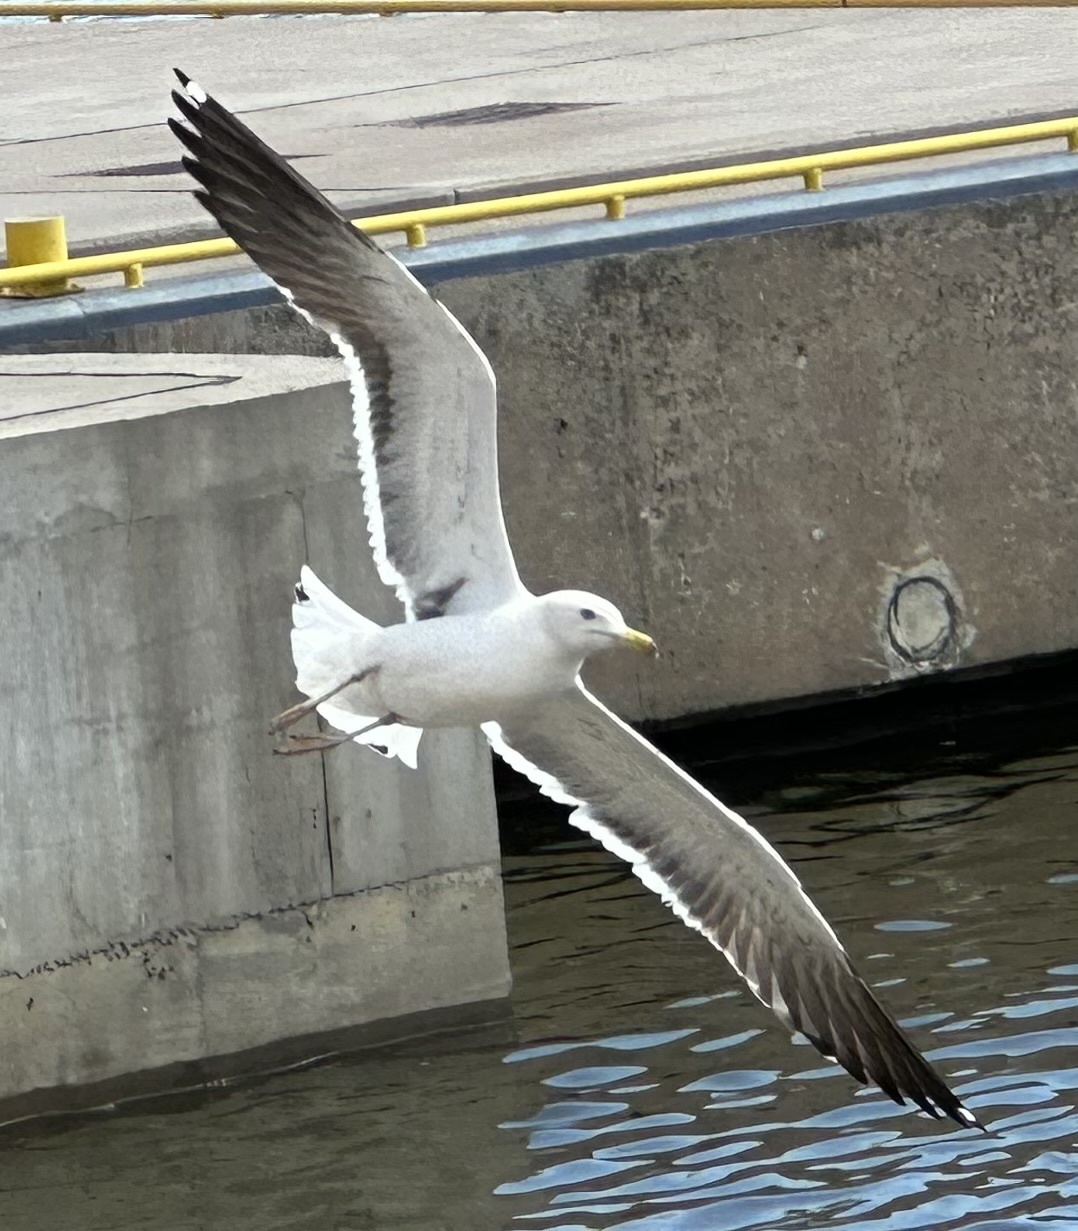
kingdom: Animalia
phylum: Chordata
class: Aves
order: Charadriiformes
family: Laridae
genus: Larus
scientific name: Larus fuscus
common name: Lesser black-backed gull
